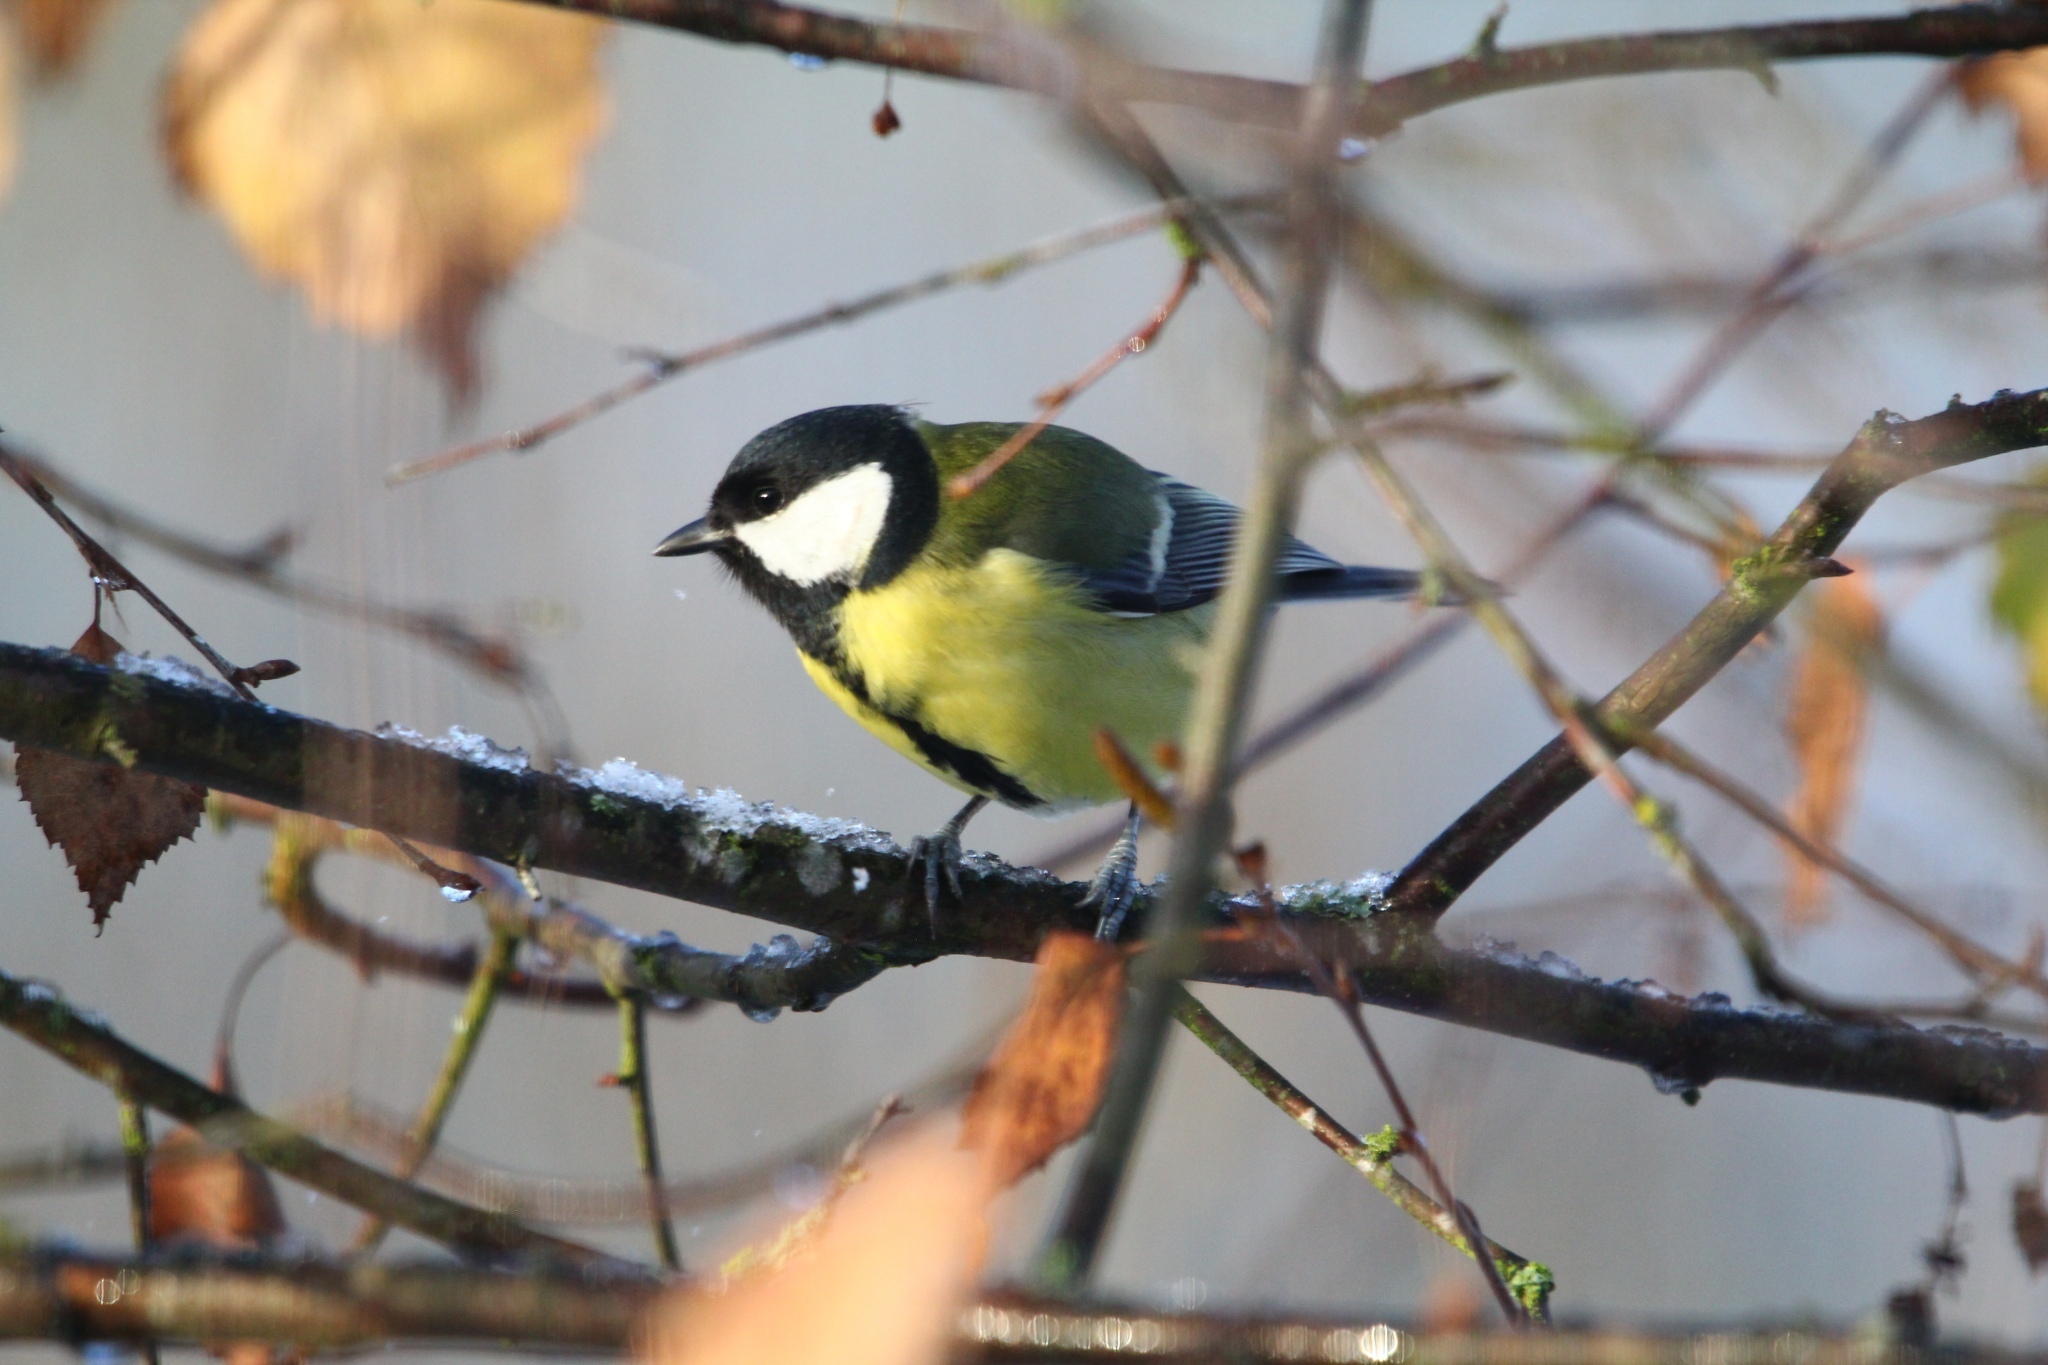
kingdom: Animalia
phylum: Chordata
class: Aves
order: Passeriformes
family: Paridae
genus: Parus
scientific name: Parus major
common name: Great tit
